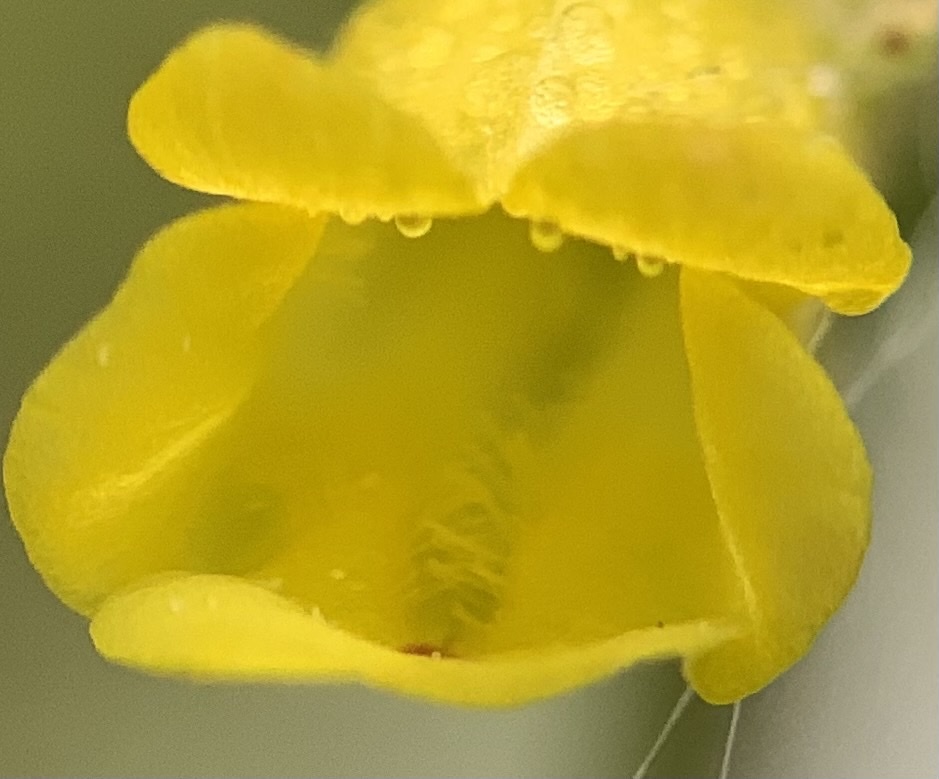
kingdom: Plantae
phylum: Tracheophyta
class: Magnoliopsida
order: Lamiales
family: Phrymaceae
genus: Erythranthe
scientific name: Erythranthe arvensis
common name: Field monkeyflower
